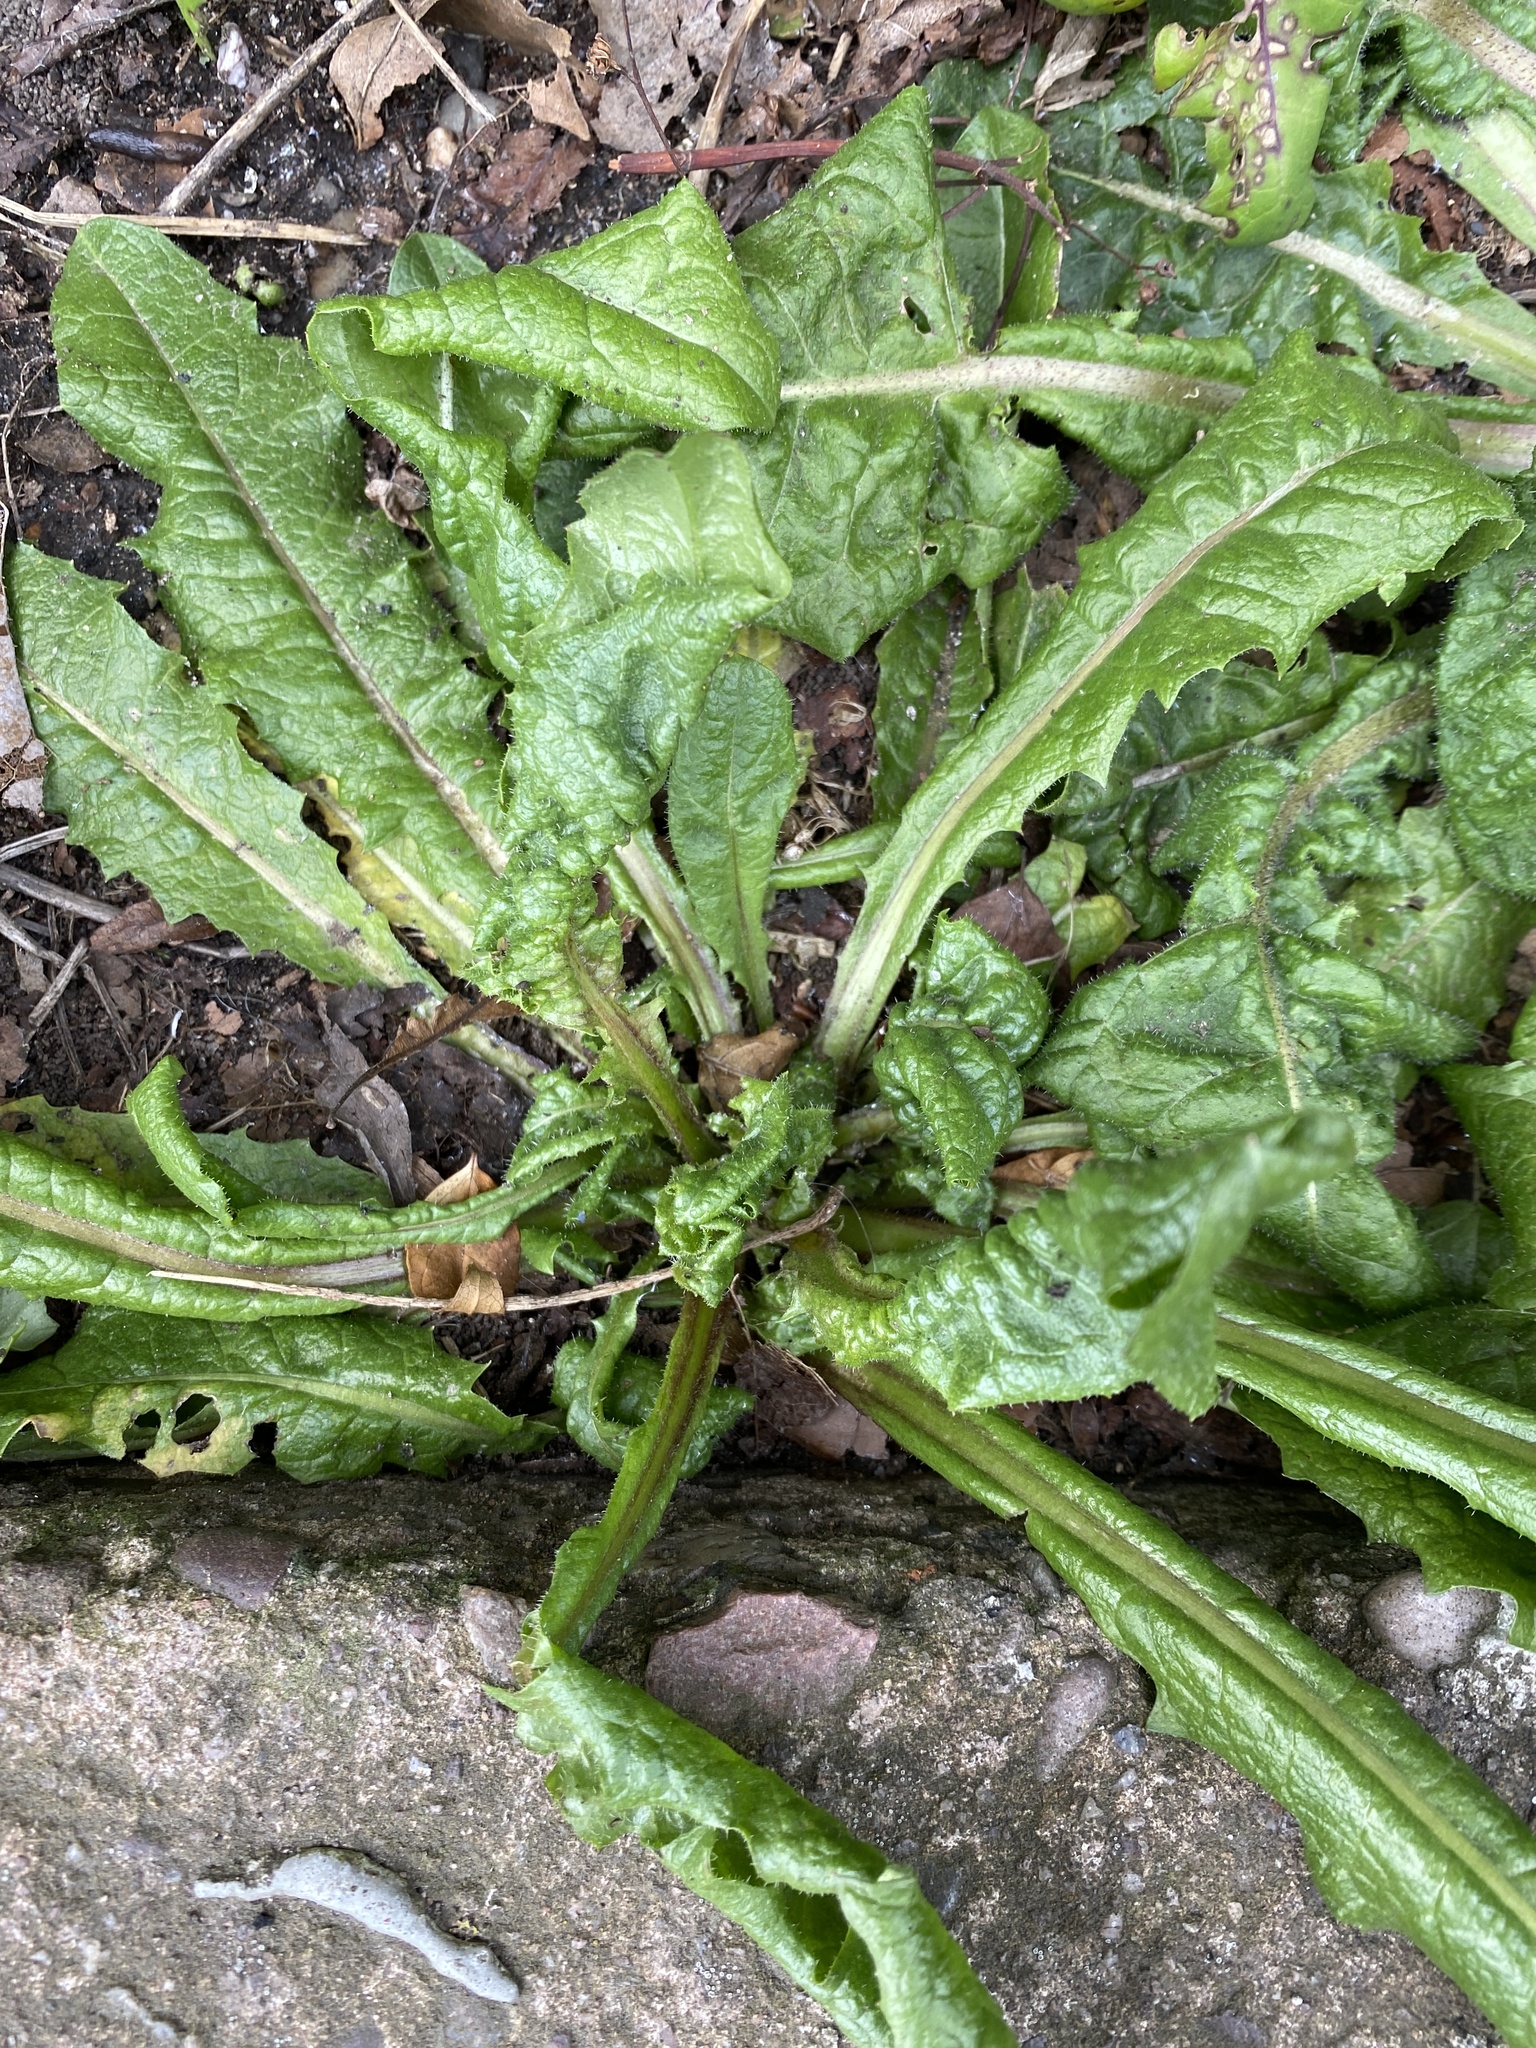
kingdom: Plantae
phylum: Tracheophyta
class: Magnoliopsida
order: Asterales
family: Asteraceae
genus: Taraxacum
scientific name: Taraxacum officinale
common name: Common dandelion
